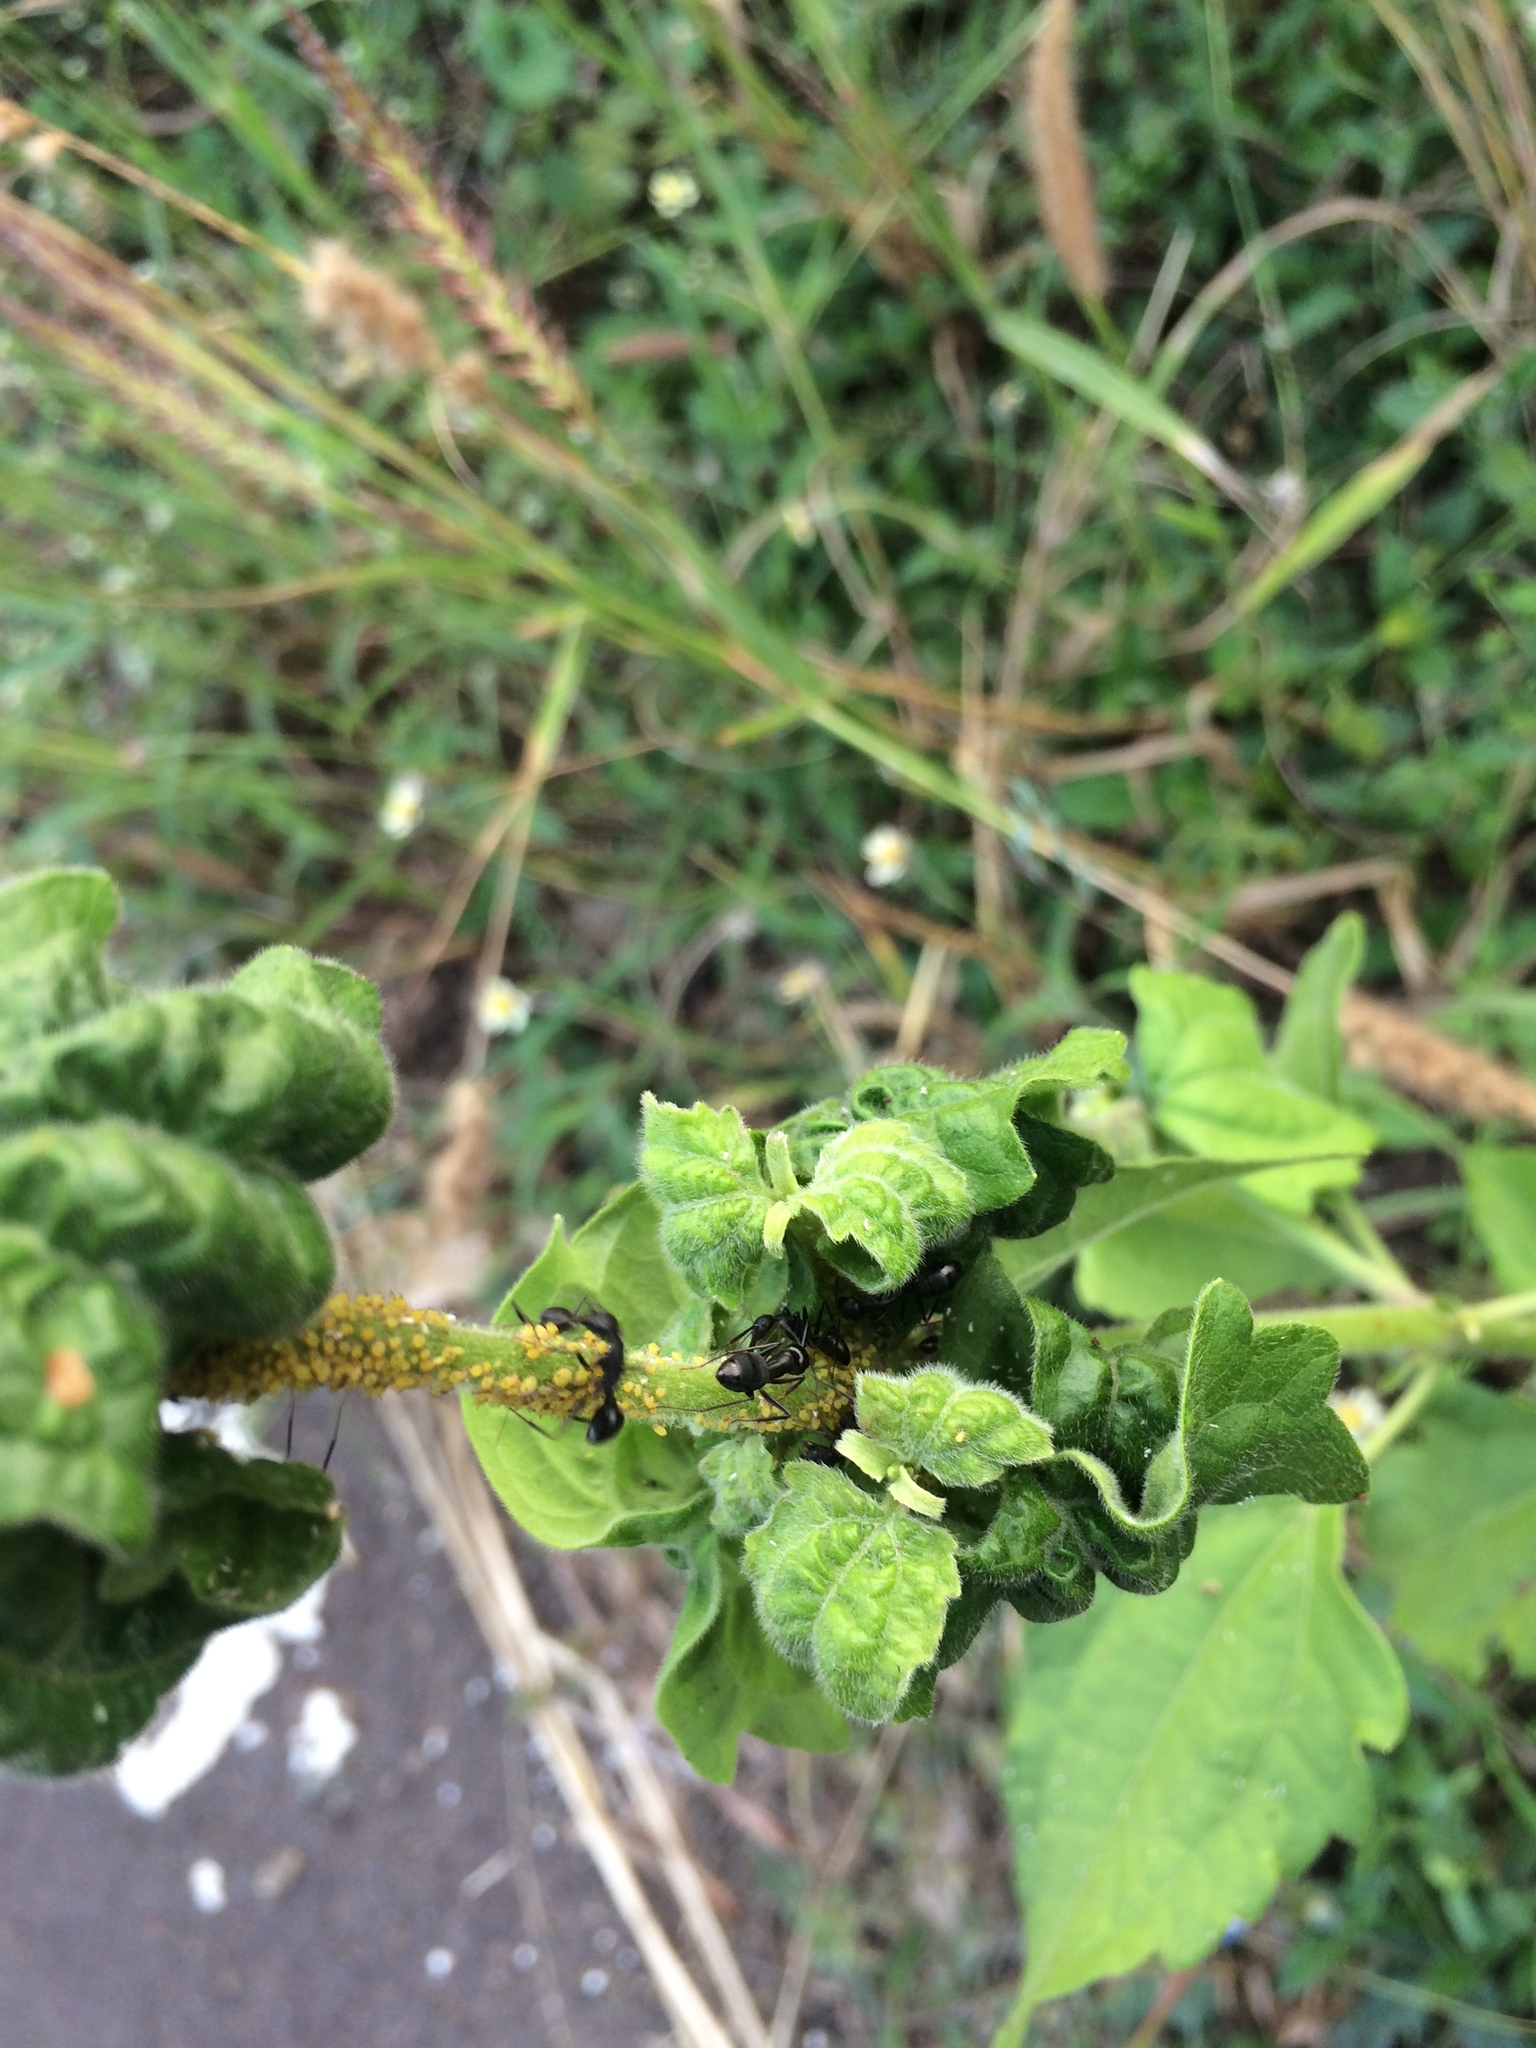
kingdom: Animalia
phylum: Arthropoda
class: Insecta
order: Hymenoptera
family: Formicidae
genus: Camponotus
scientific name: Camponotus compressus
